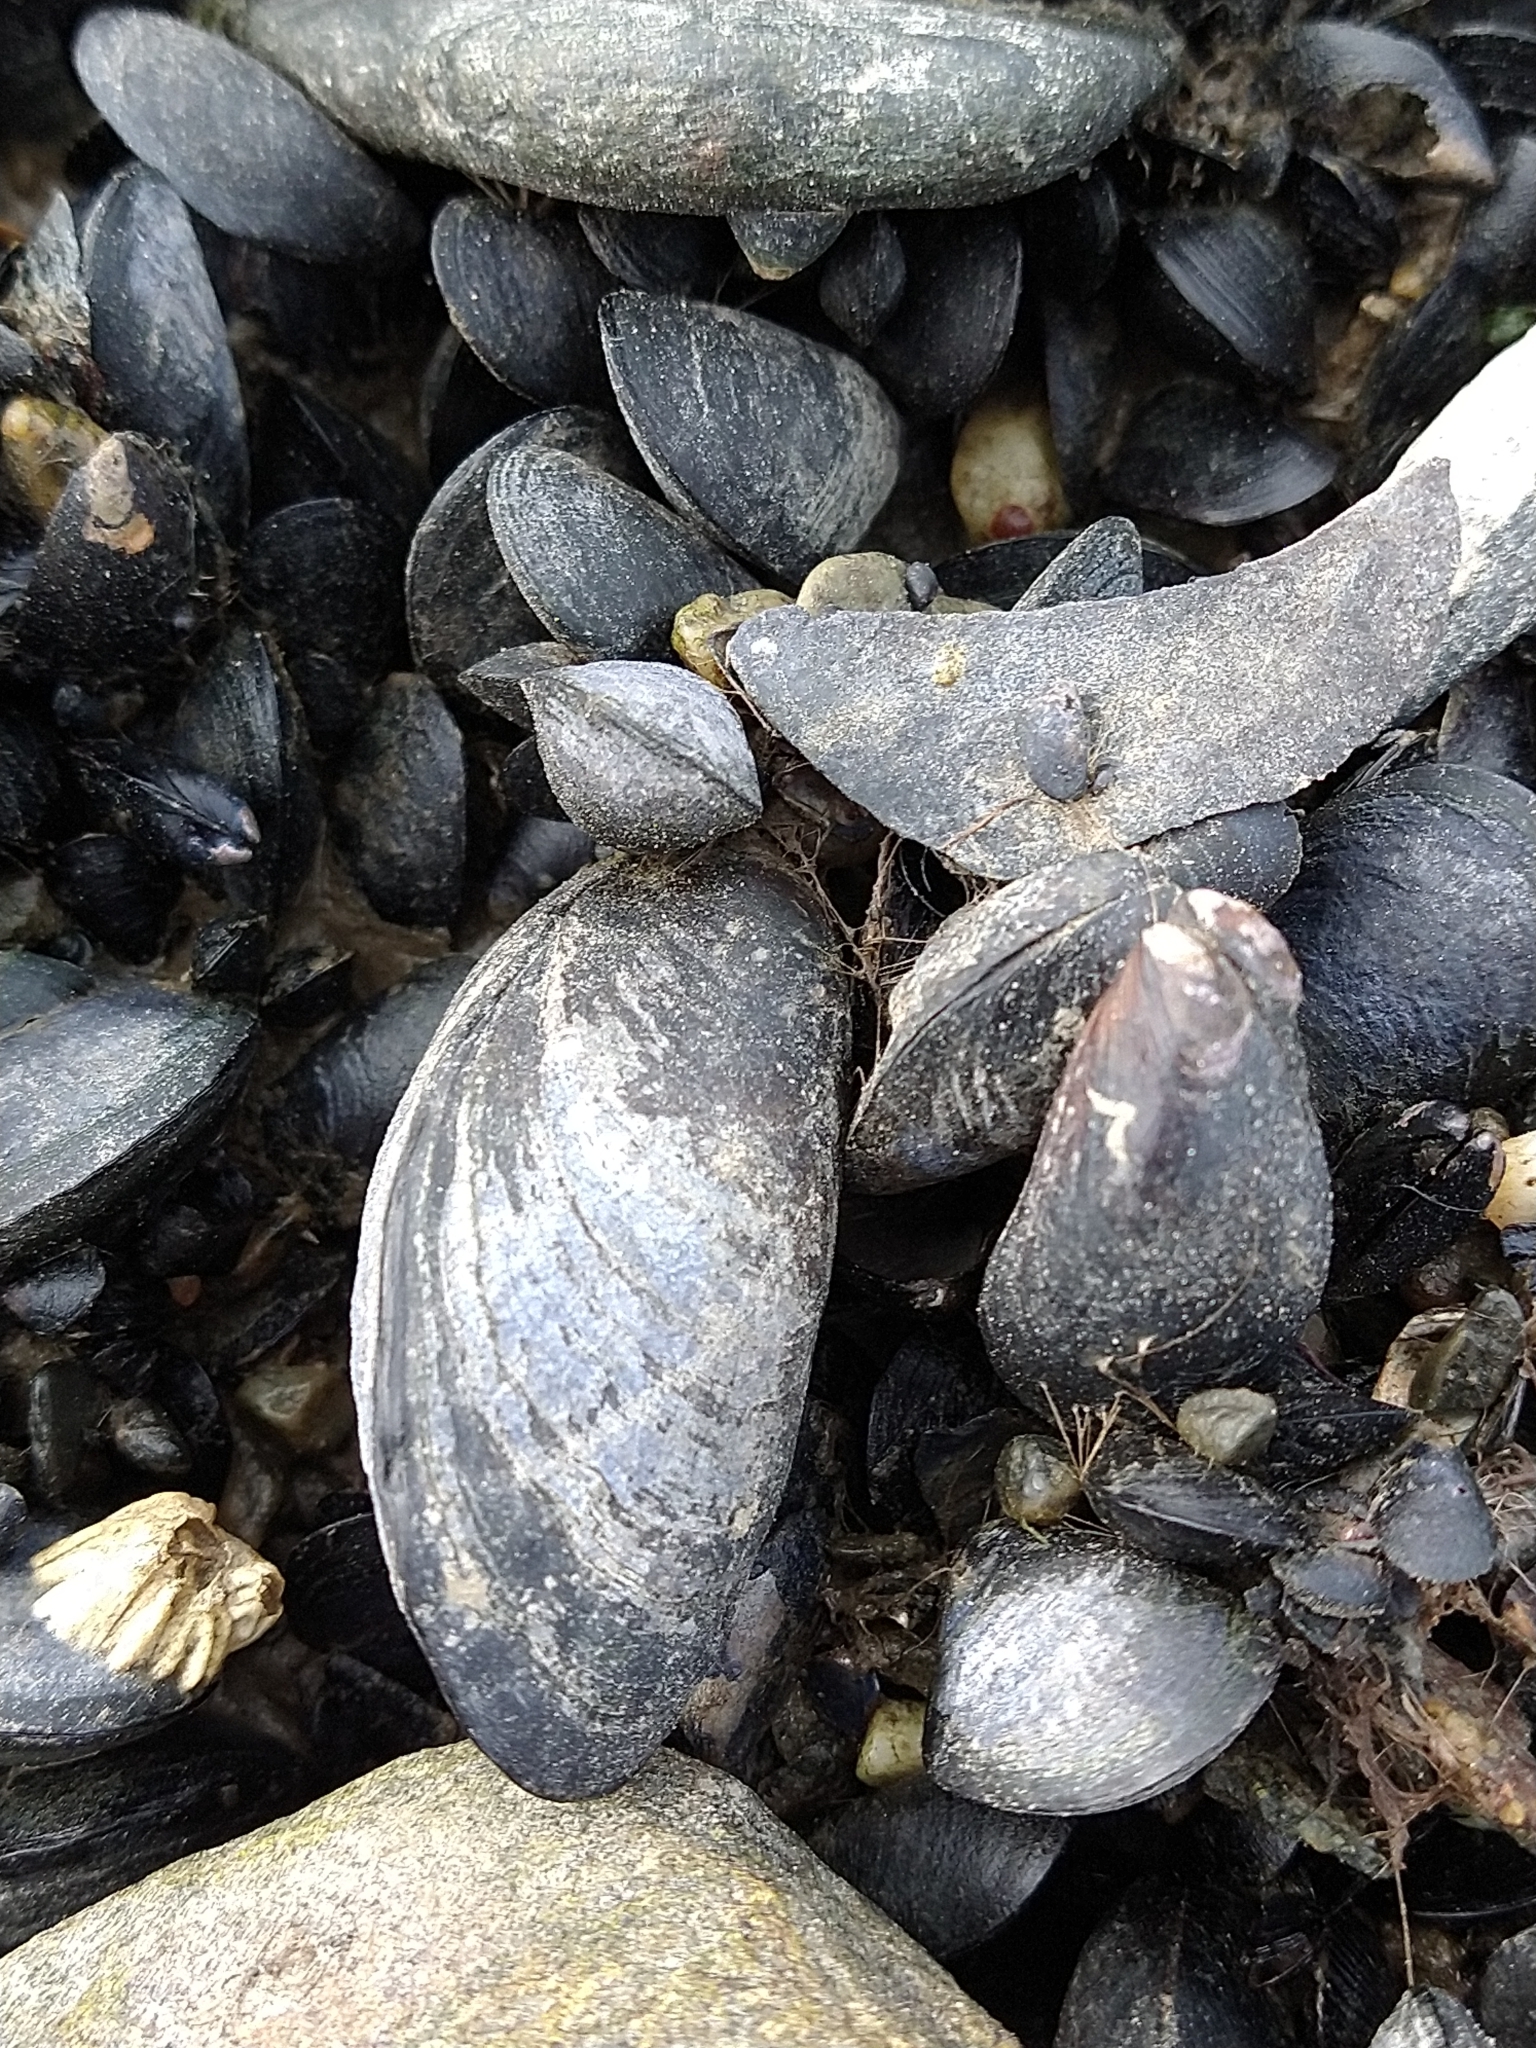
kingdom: Animalia
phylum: Mollusca
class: Bivalvia
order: Mytilida
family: Mytilidae
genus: Mytilus
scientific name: Mytilus chilensis
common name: Chilean mussel
